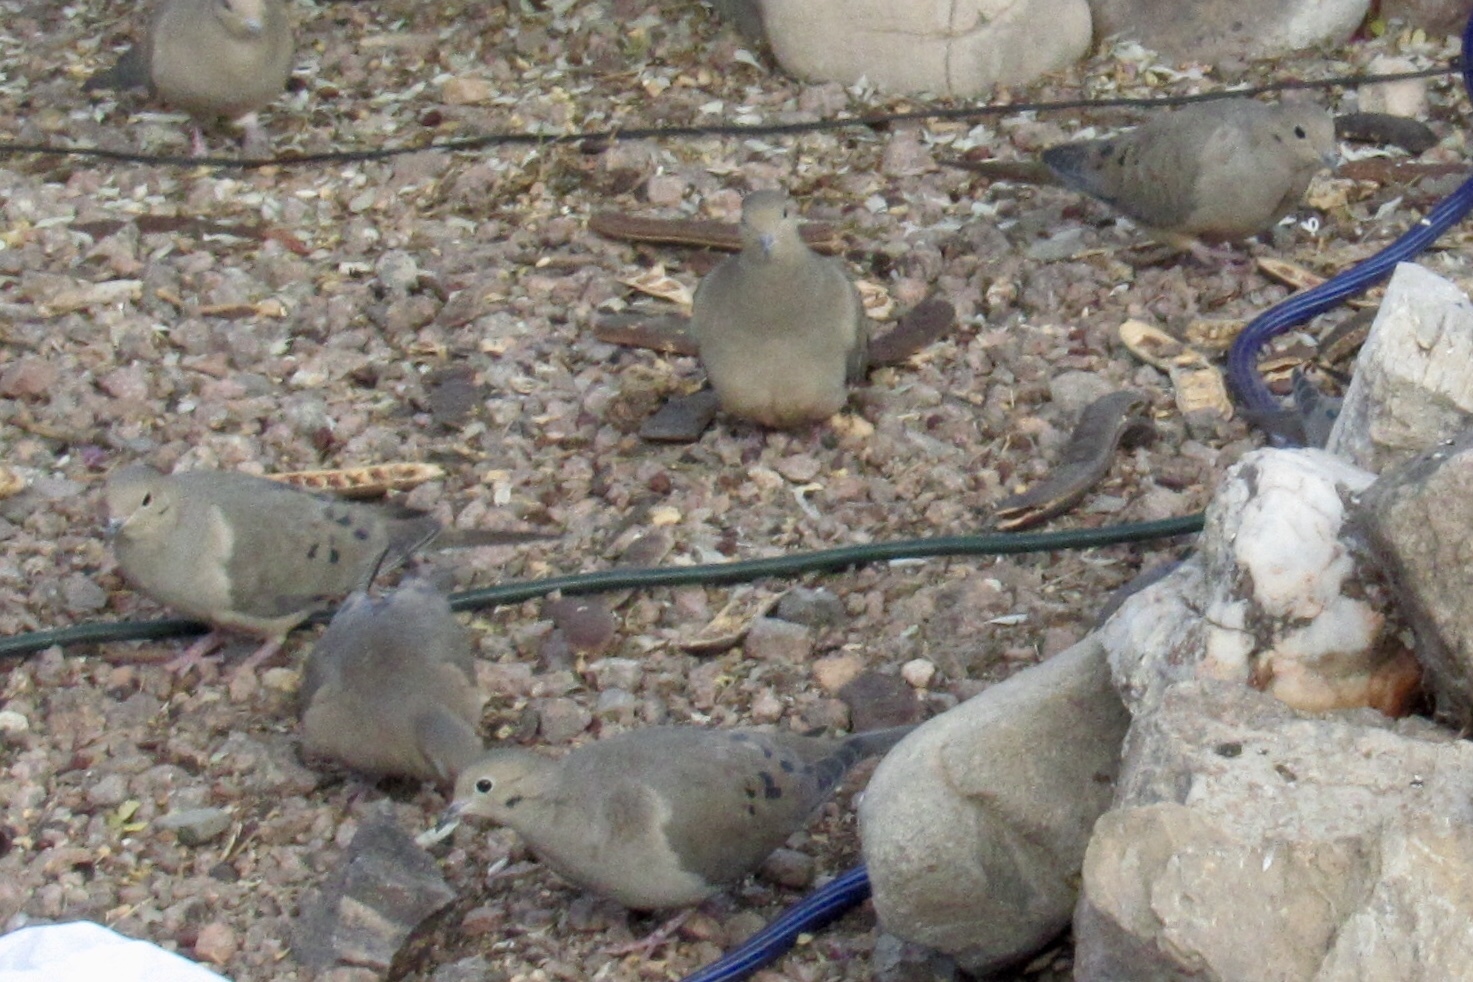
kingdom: Animalia
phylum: Chordata
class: Aves
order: Columbiformes
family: Columbidae
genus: Zenaida
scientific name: Zenaida macroura
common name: Mourning dove
